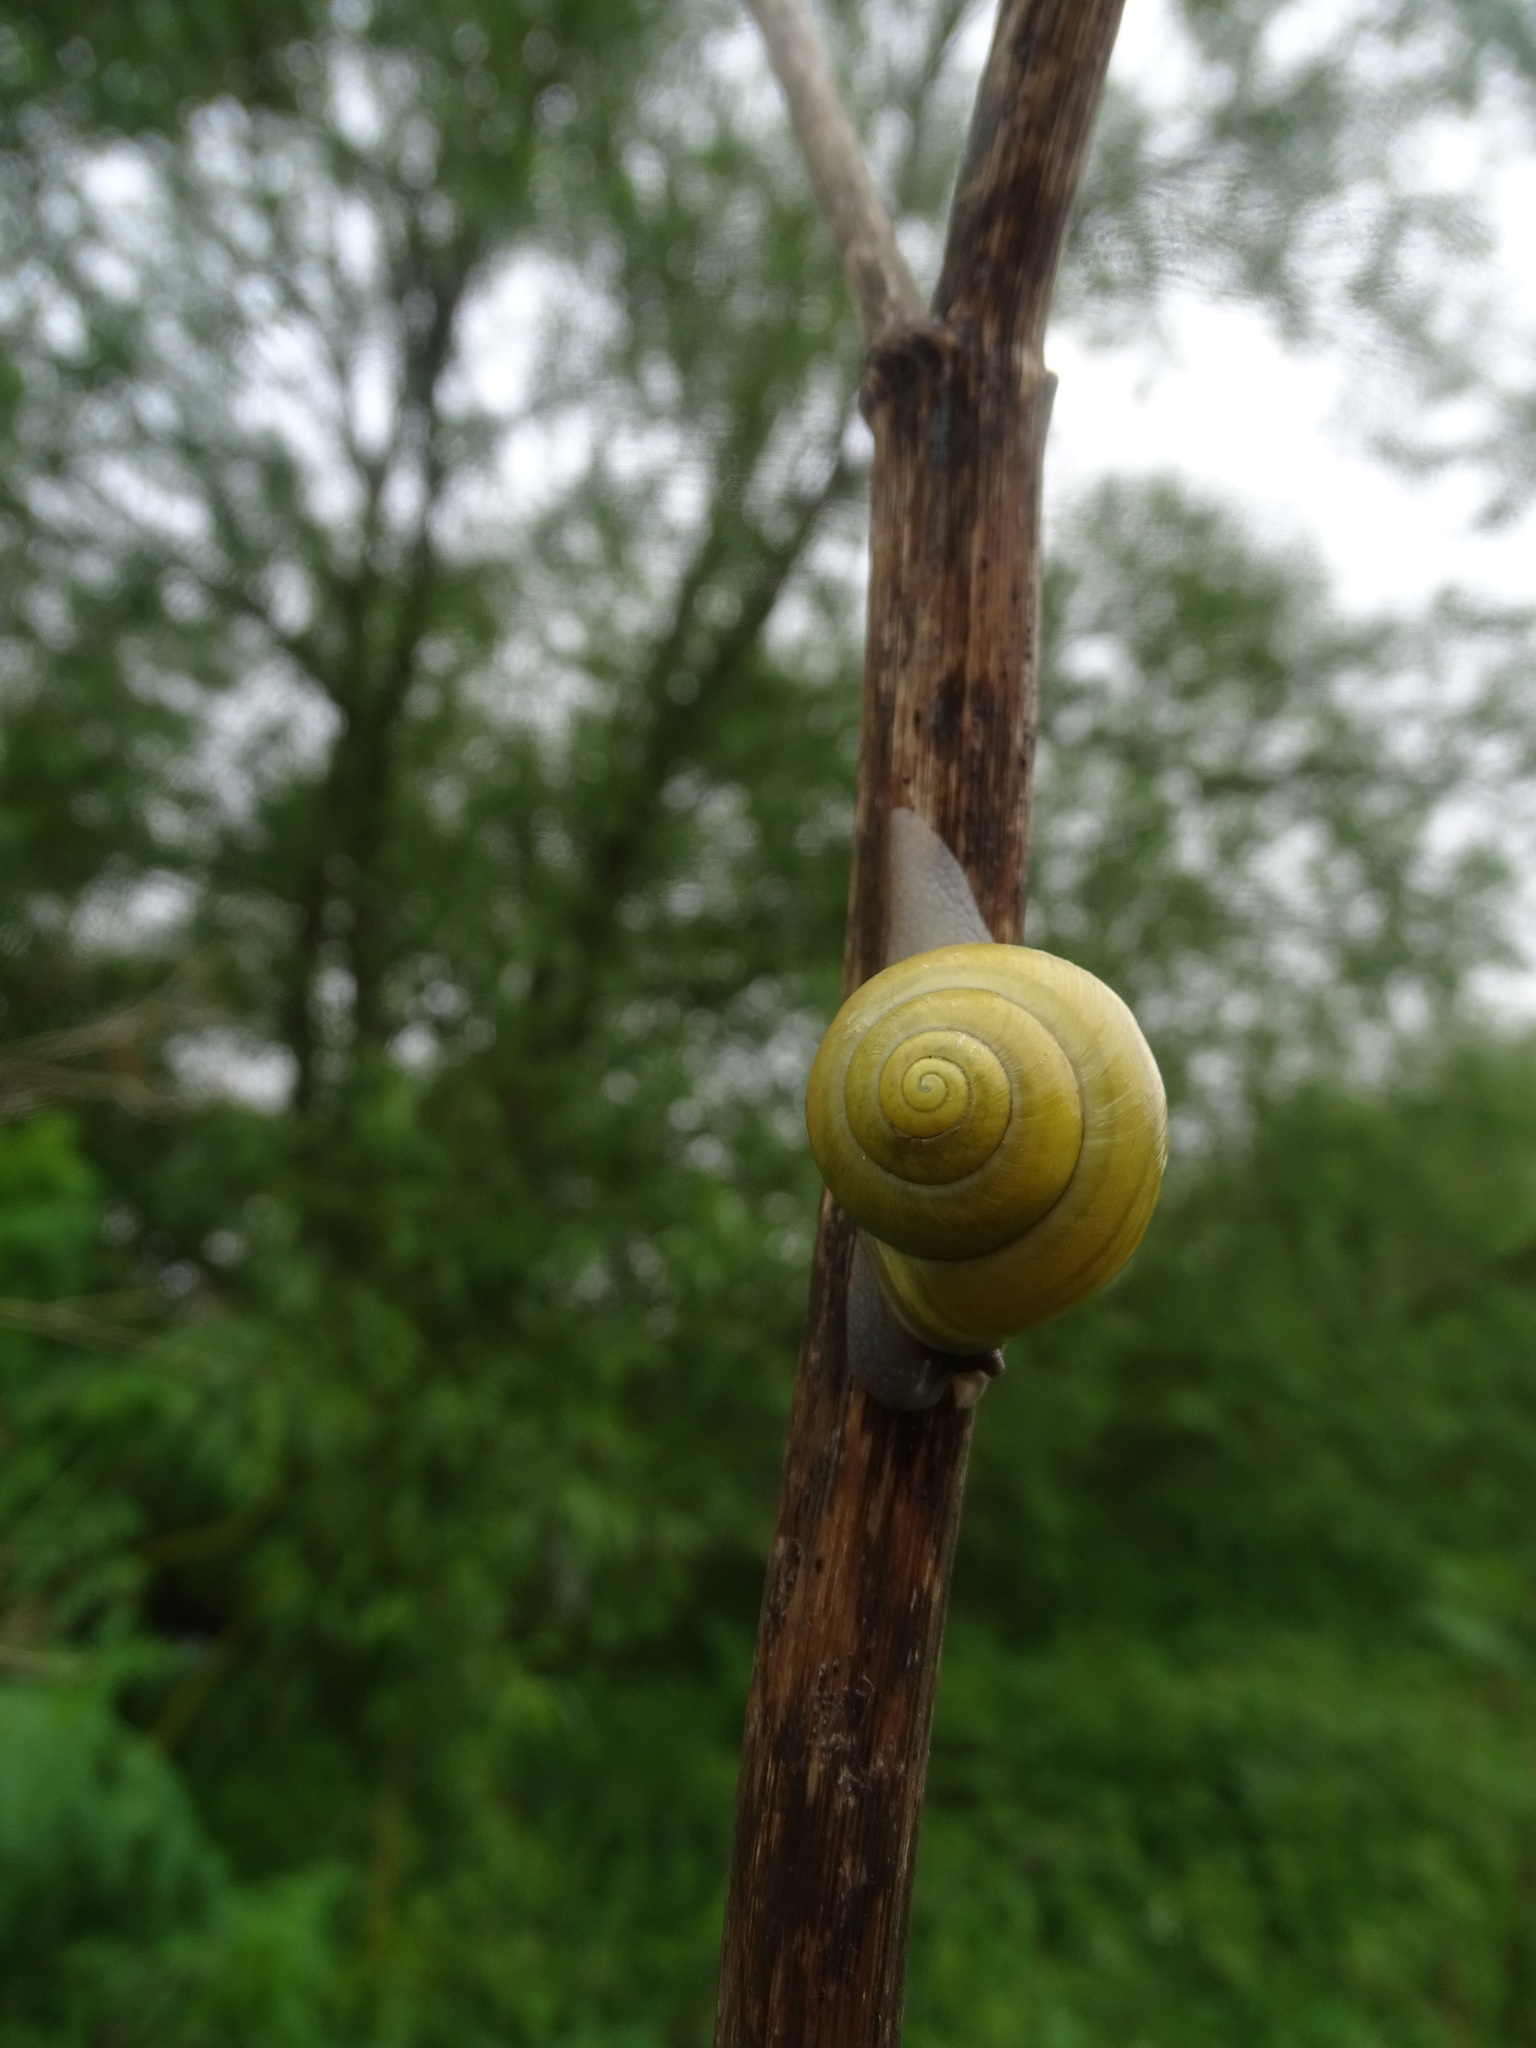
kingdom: Animalia
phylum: Mollusca
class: Gastropoda
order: Stylommatophora
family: Helicidae
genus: Cepaea
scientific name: Cepaea hortensis
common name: White-lip gardensnail
